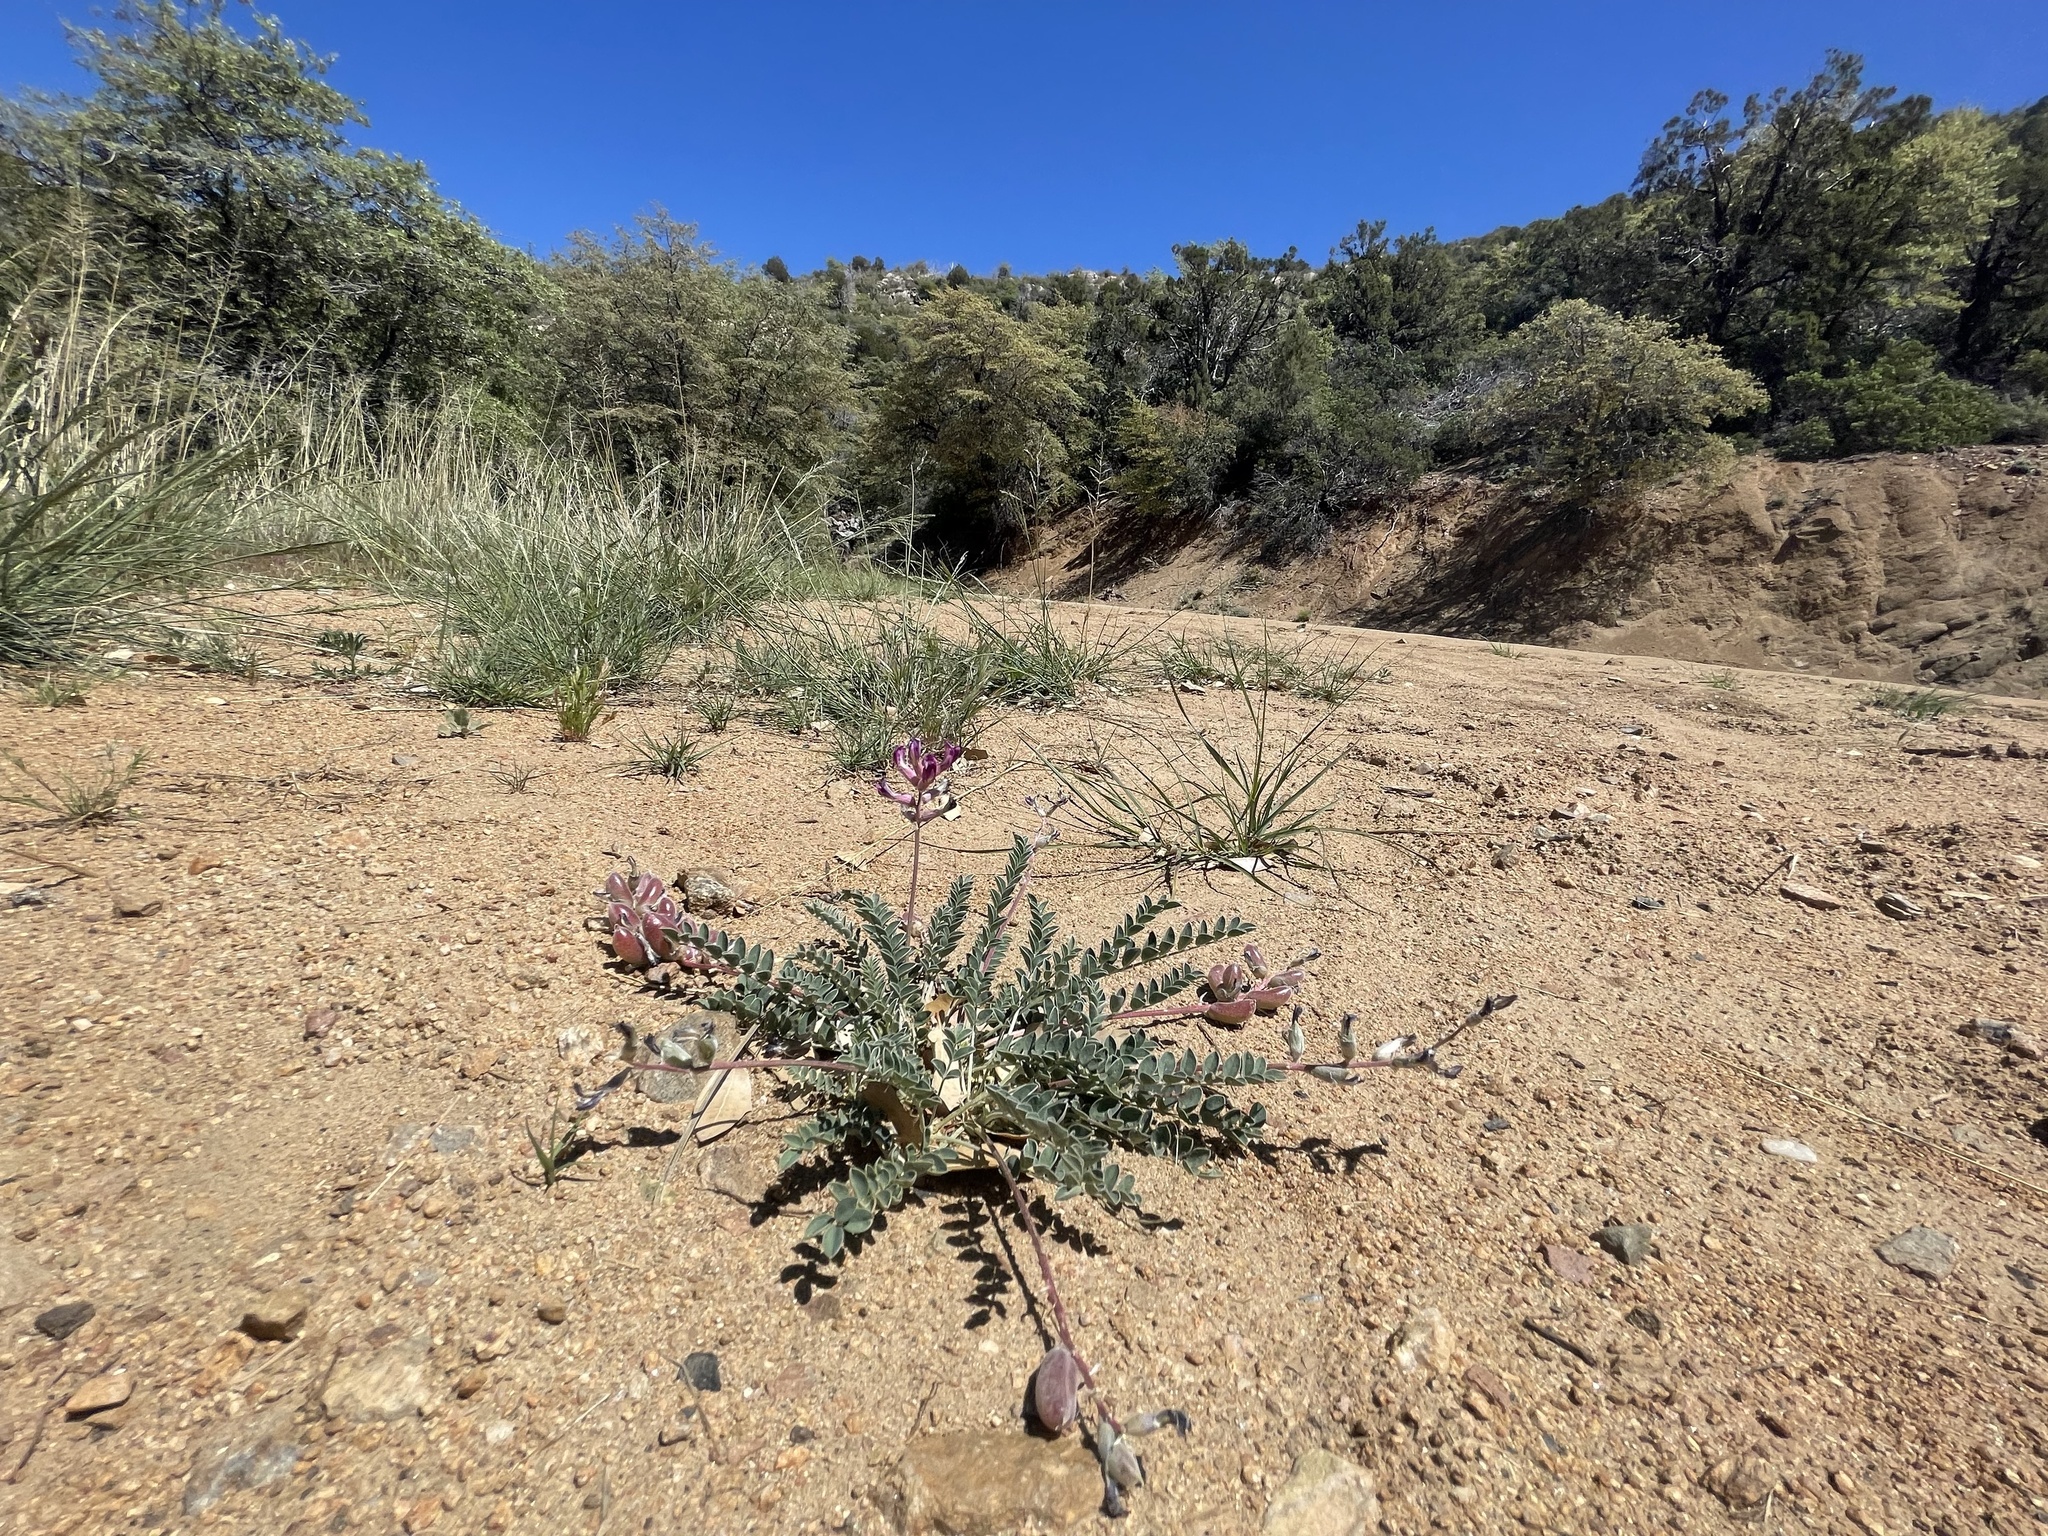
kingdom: Plantae
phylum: Tracheophyta
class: Magnoliopsida
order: Fabales
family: Fabaceae
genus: Astragalus
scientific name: Astragalus tephrodes
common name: Ashen milk-vetch
